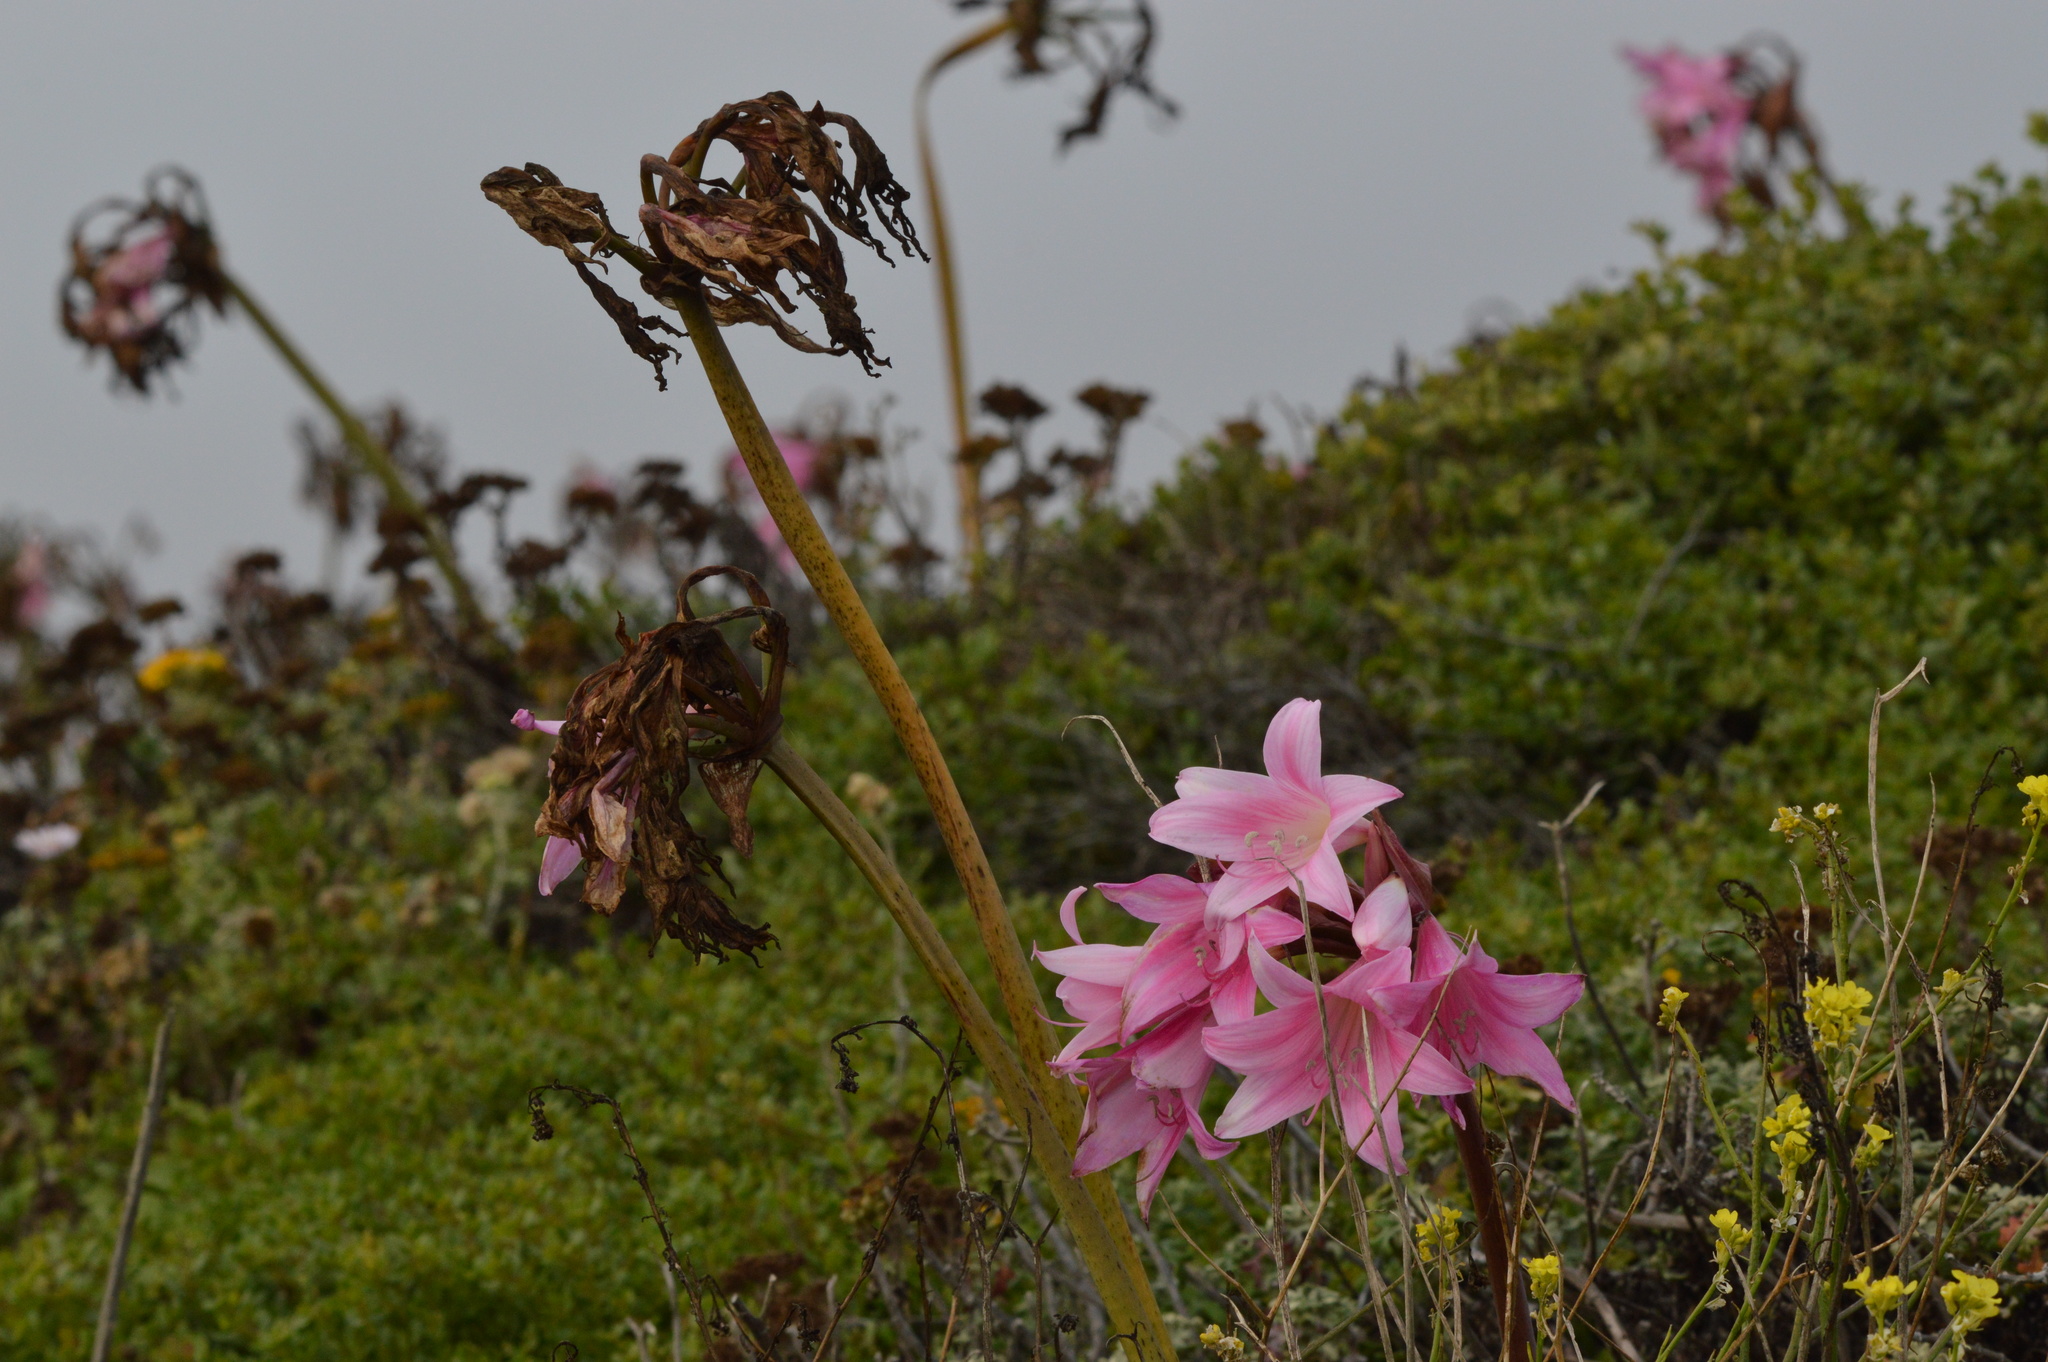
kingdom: Plantae
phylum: Tracheophyta
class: Liliopsida
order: Asparagales
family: Amaryllidaceae
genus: Amaryllis
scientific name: Amaryllis belladonna
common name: Jersey lily
